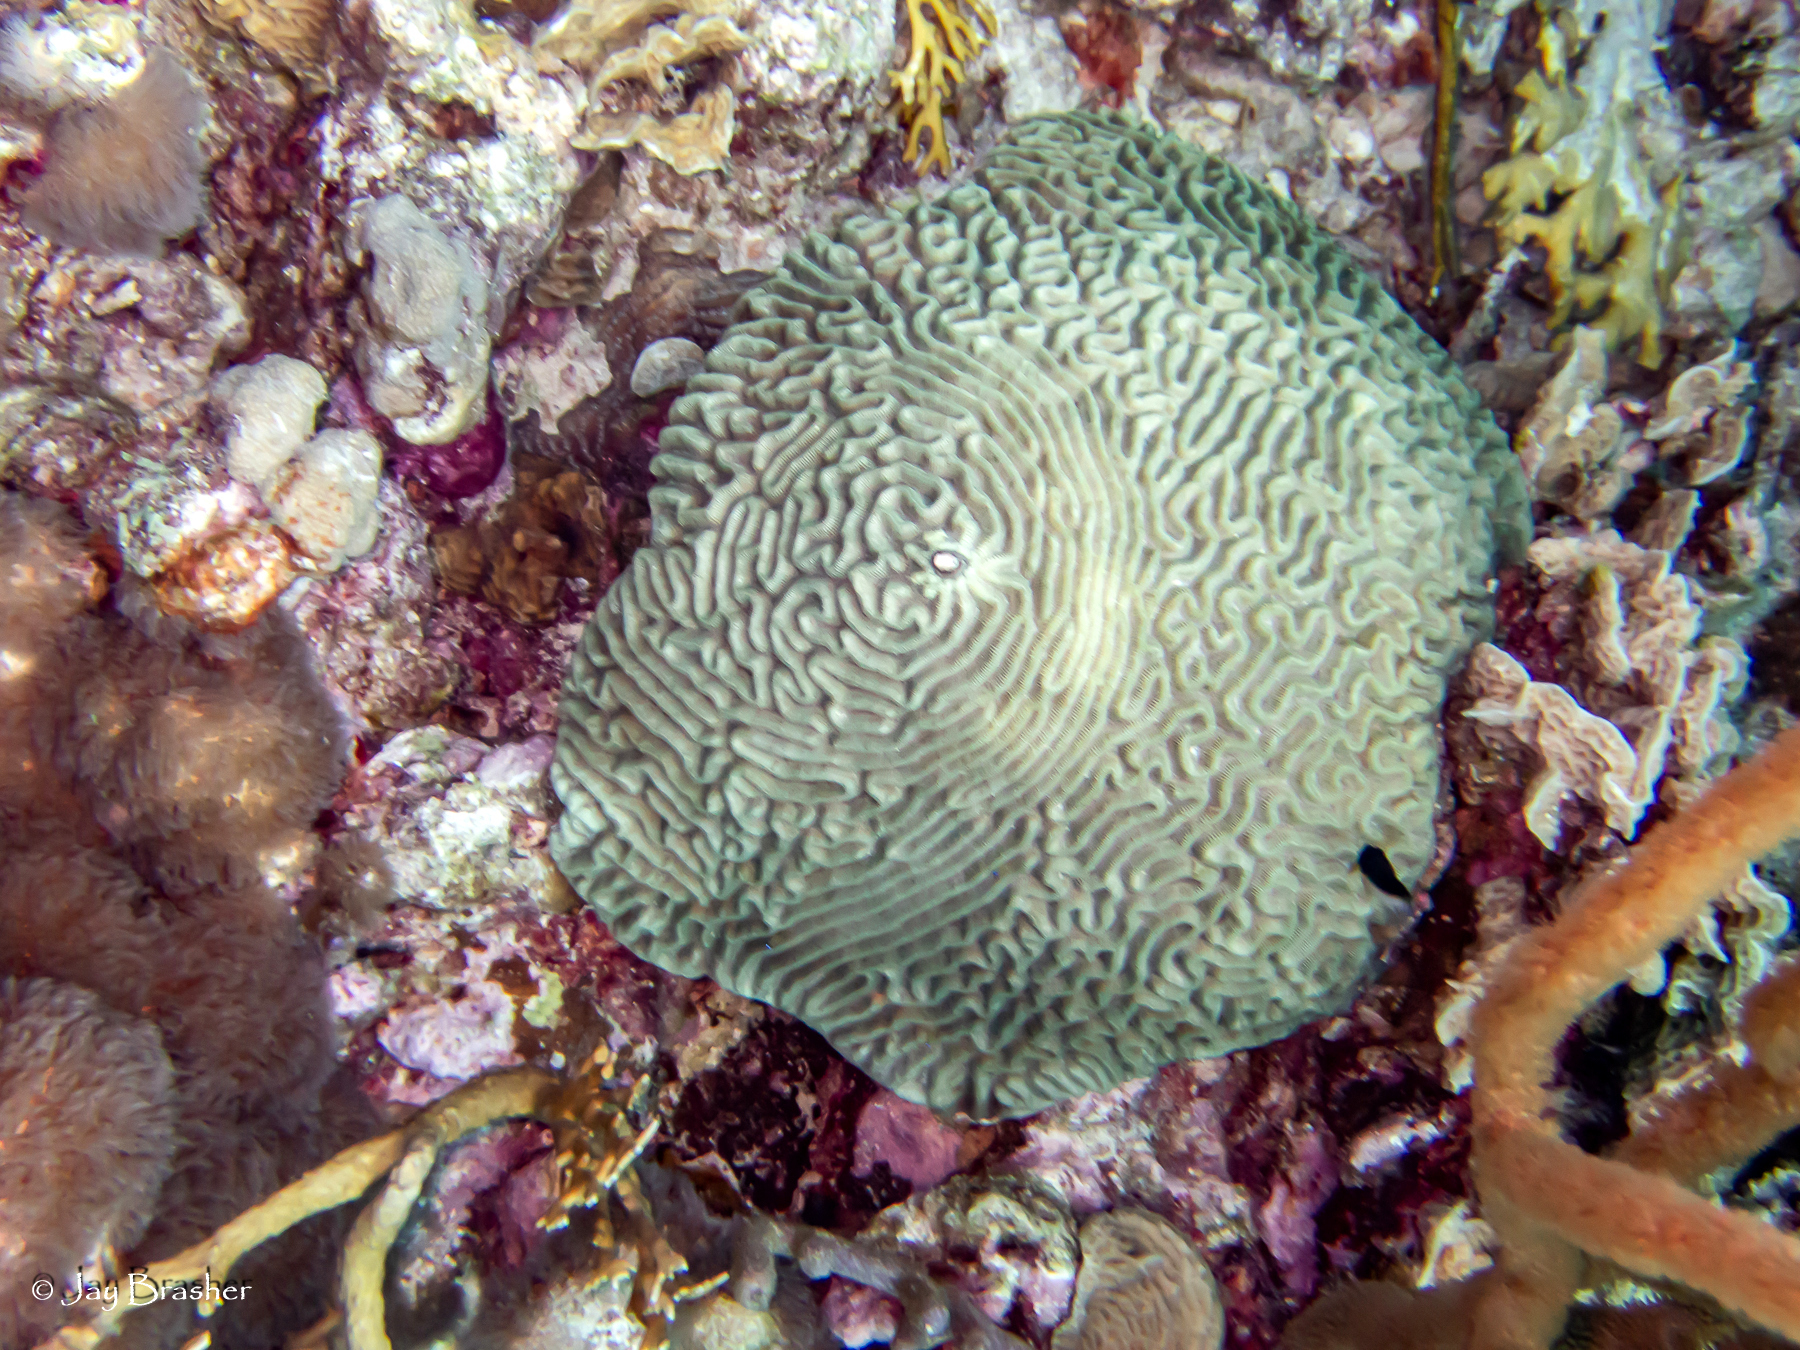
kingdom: Animalia
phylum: Cnidaria
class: Anthozoa
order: Scleractinia
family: Faviidae
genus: Colpophyllia
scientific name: Colpophyllia natans
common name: Boulder brain coral
